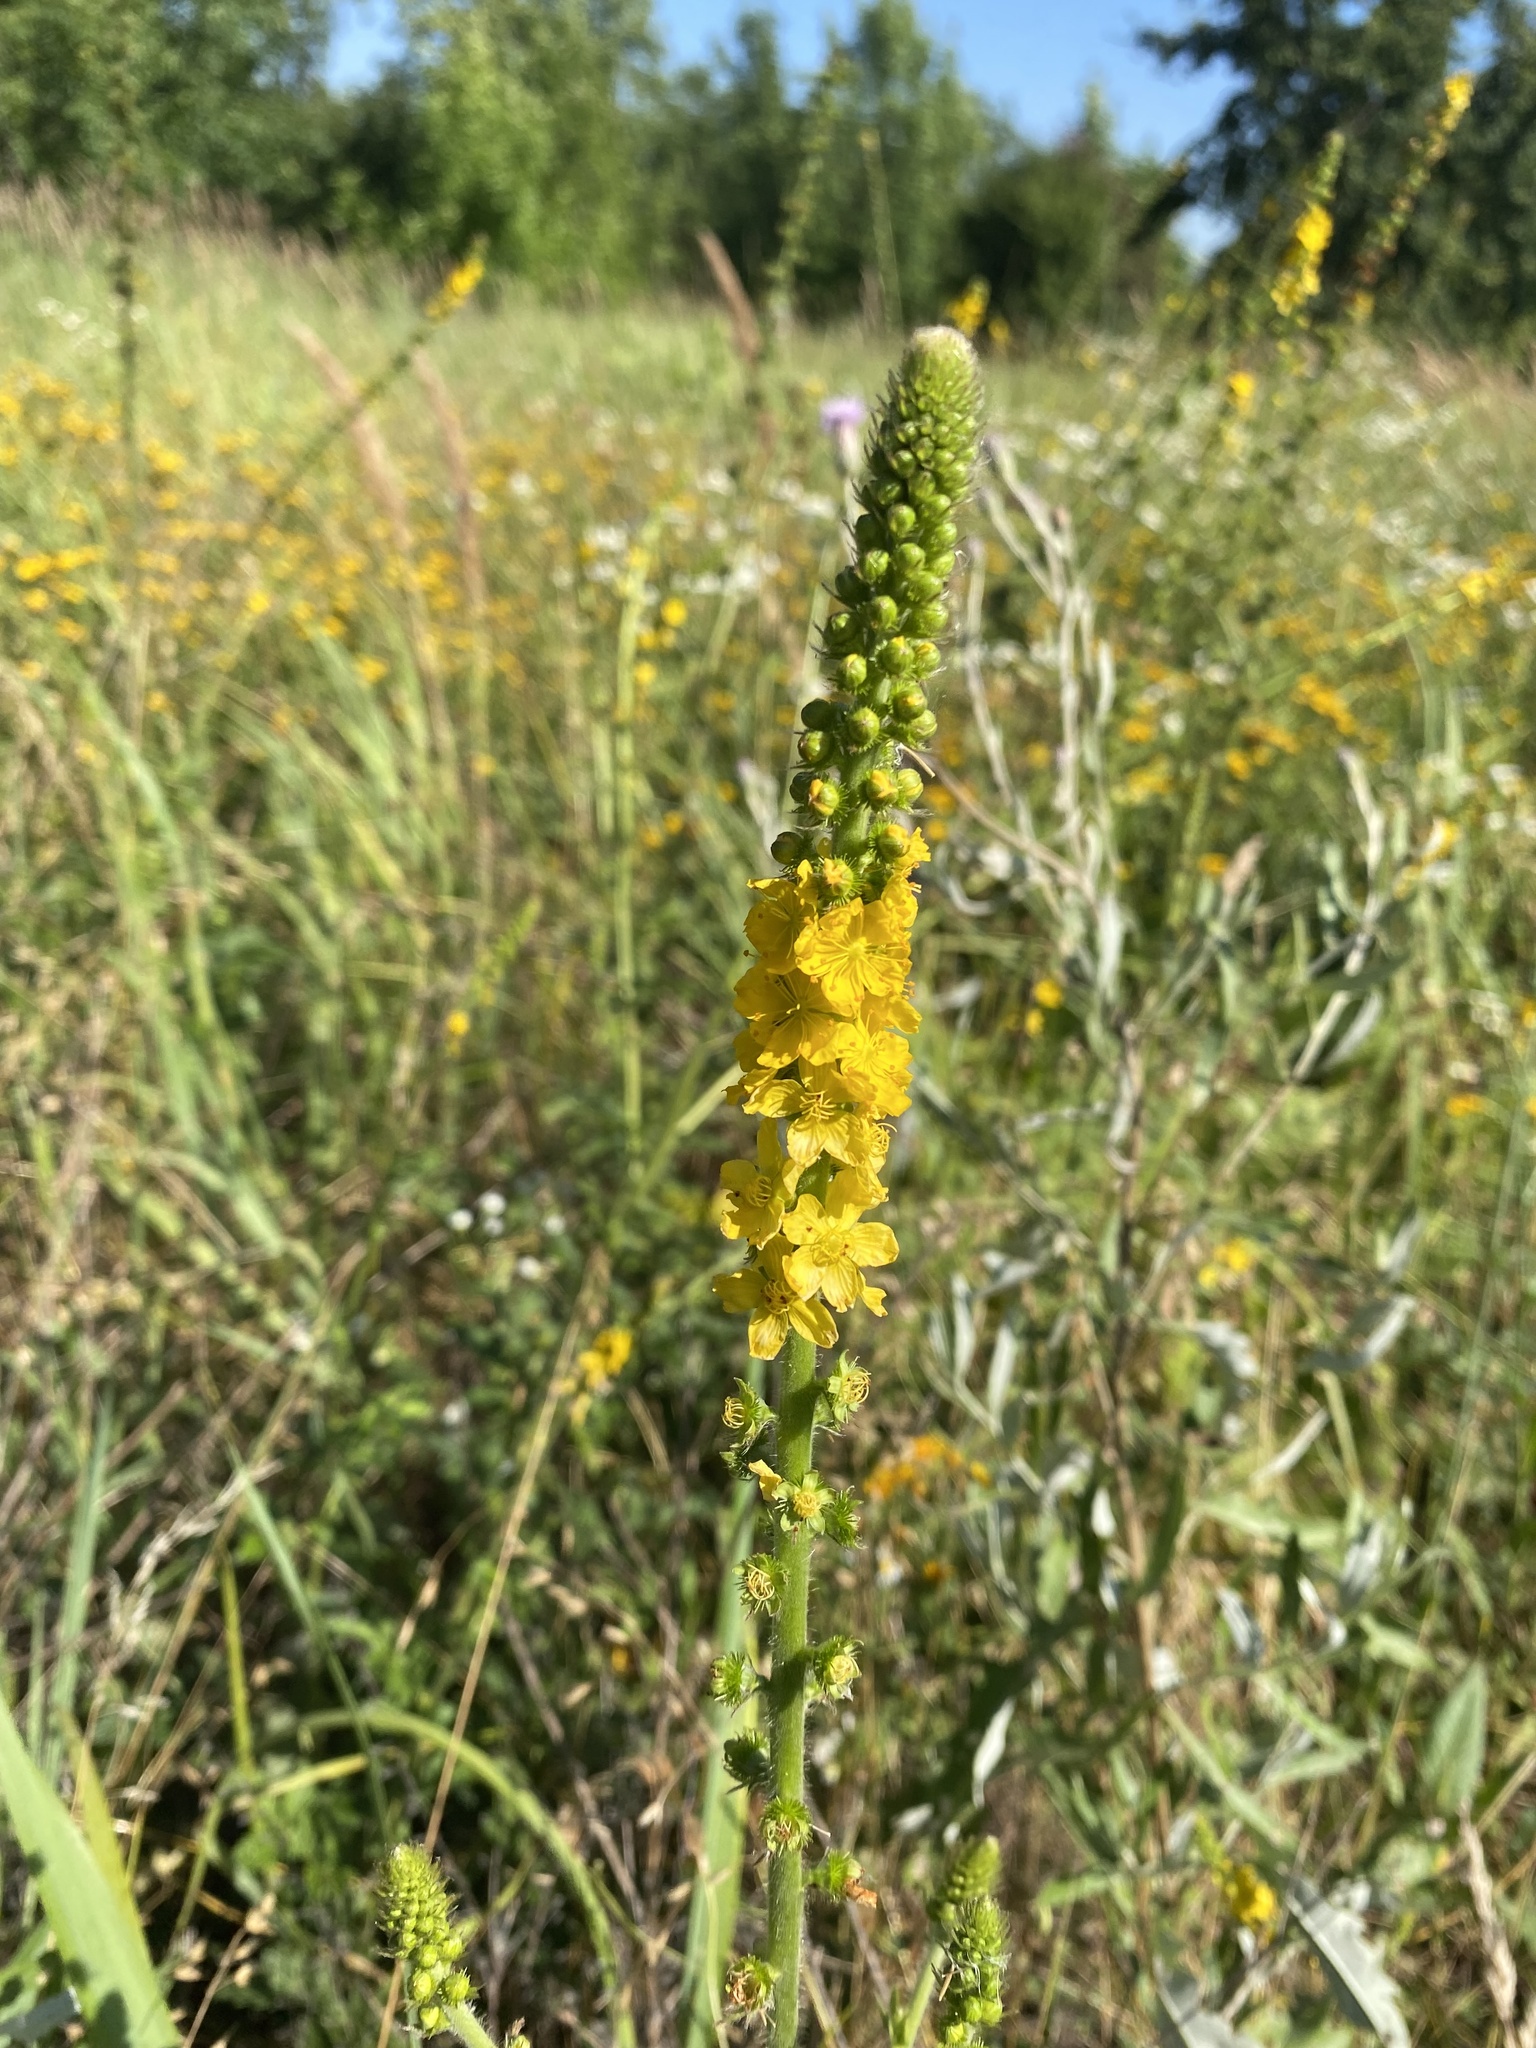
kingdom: Plantae
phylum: Tracheophyta
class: Magnoliopsida
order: Rosales
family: Rosaceae
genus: Agrimonia
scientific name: Agrimonia eupatoria
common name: Agrimony
